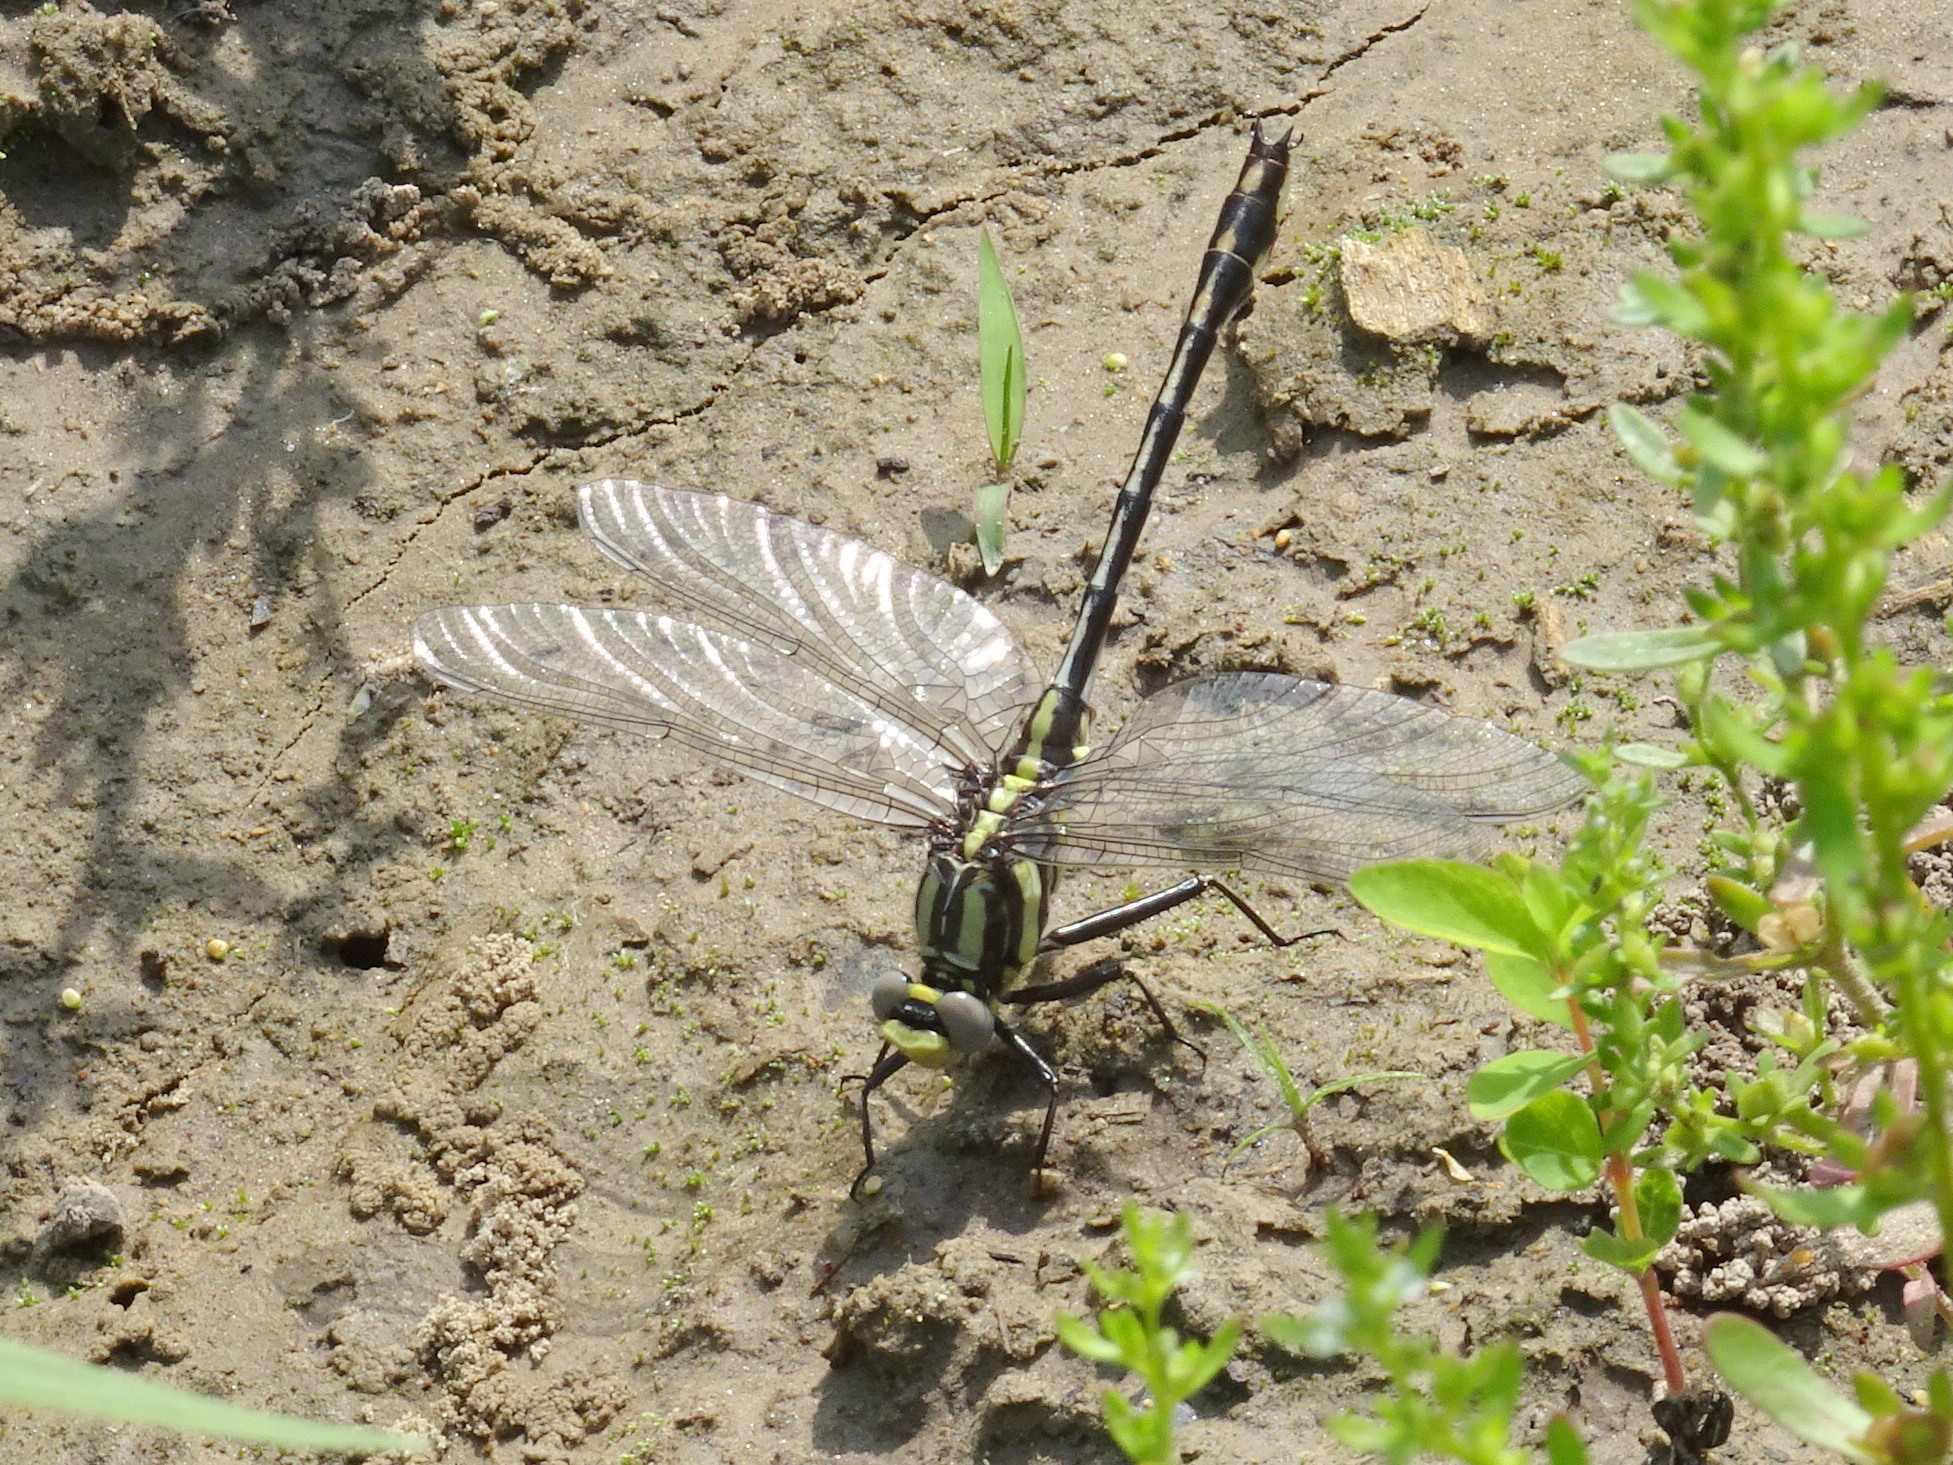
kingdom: Animalia
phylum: Arthropoda
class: Insecta
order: Odonata
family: Gomphidae
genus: Gomphurus
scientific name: Gomphurus externus
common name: Plains clubtail
